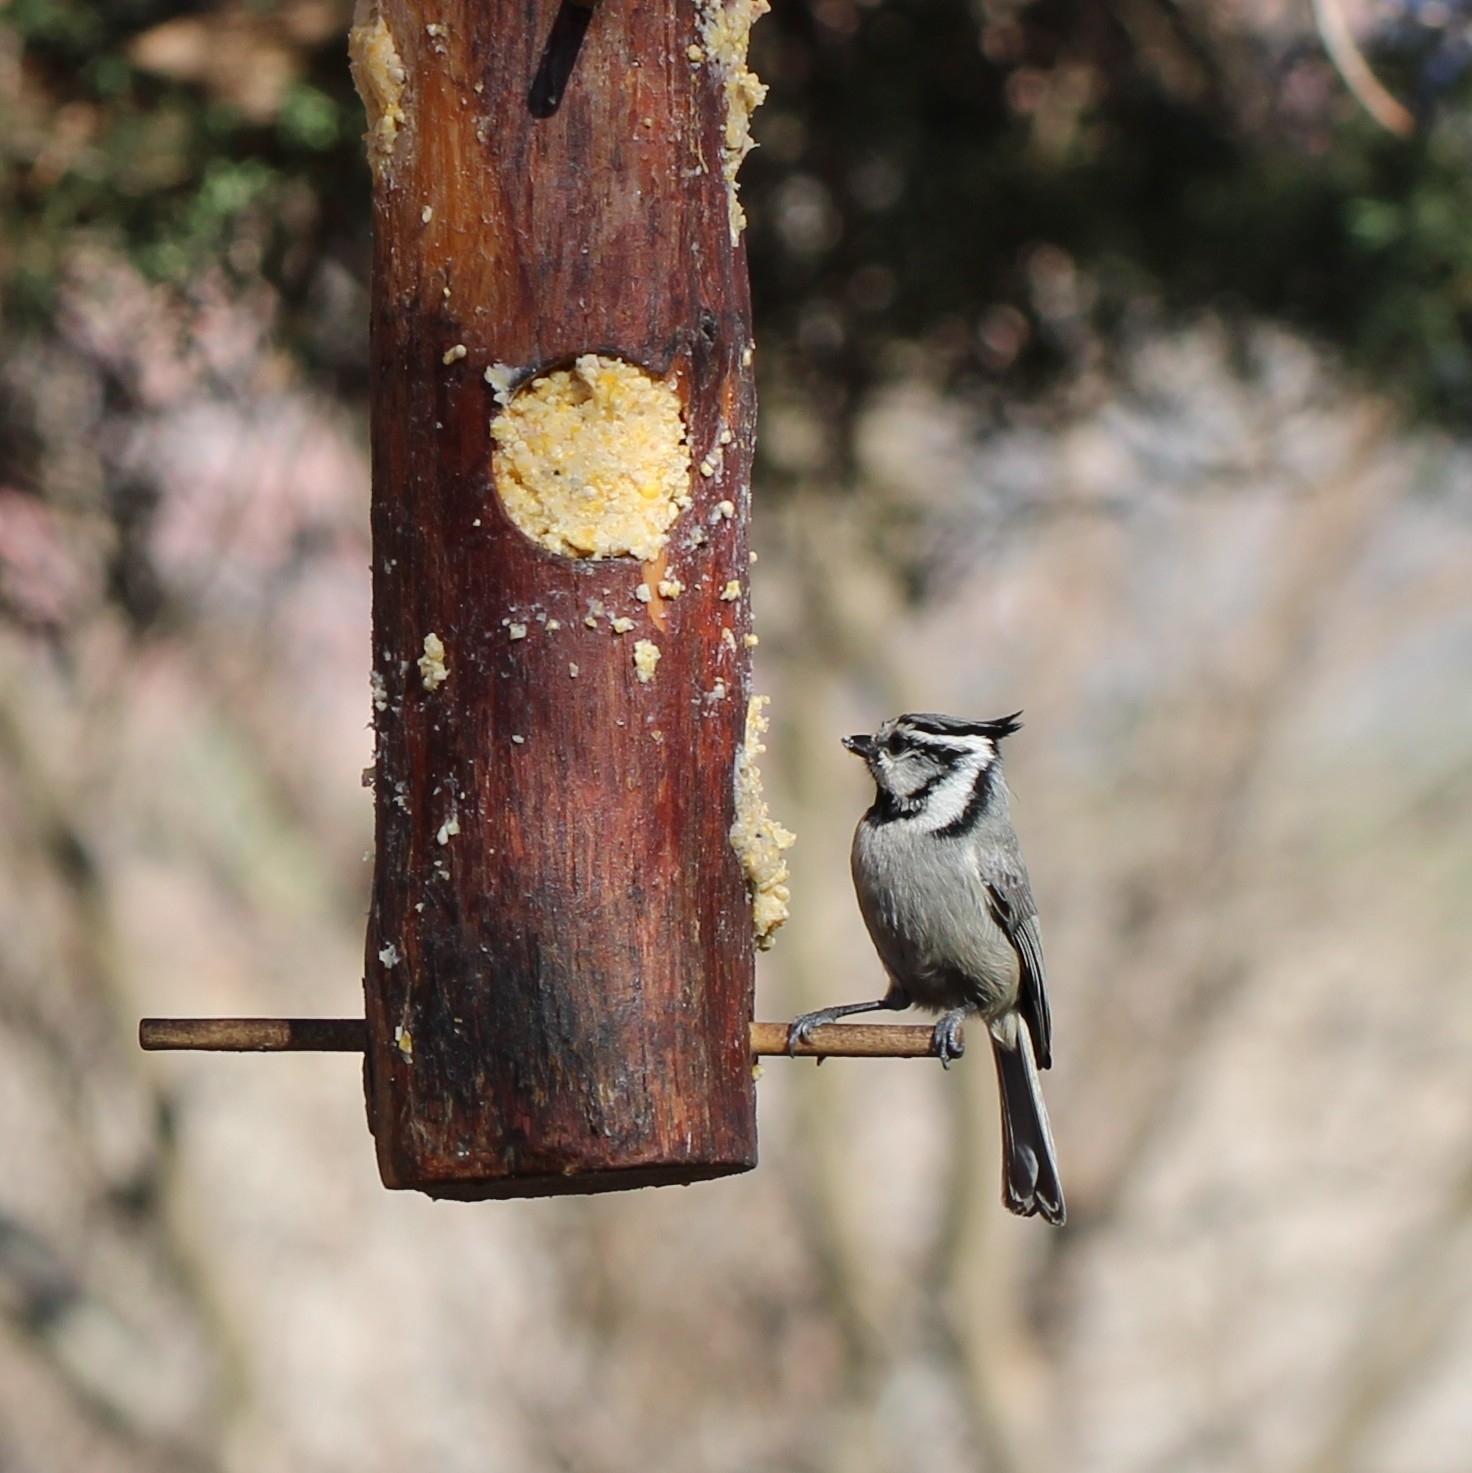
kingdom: Animalia
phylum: Chordata
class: Aves
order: Passeriformes
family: Paridae
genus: Baeolophus
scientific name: Baeolophus wollweberi
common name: Bridled titmouse
